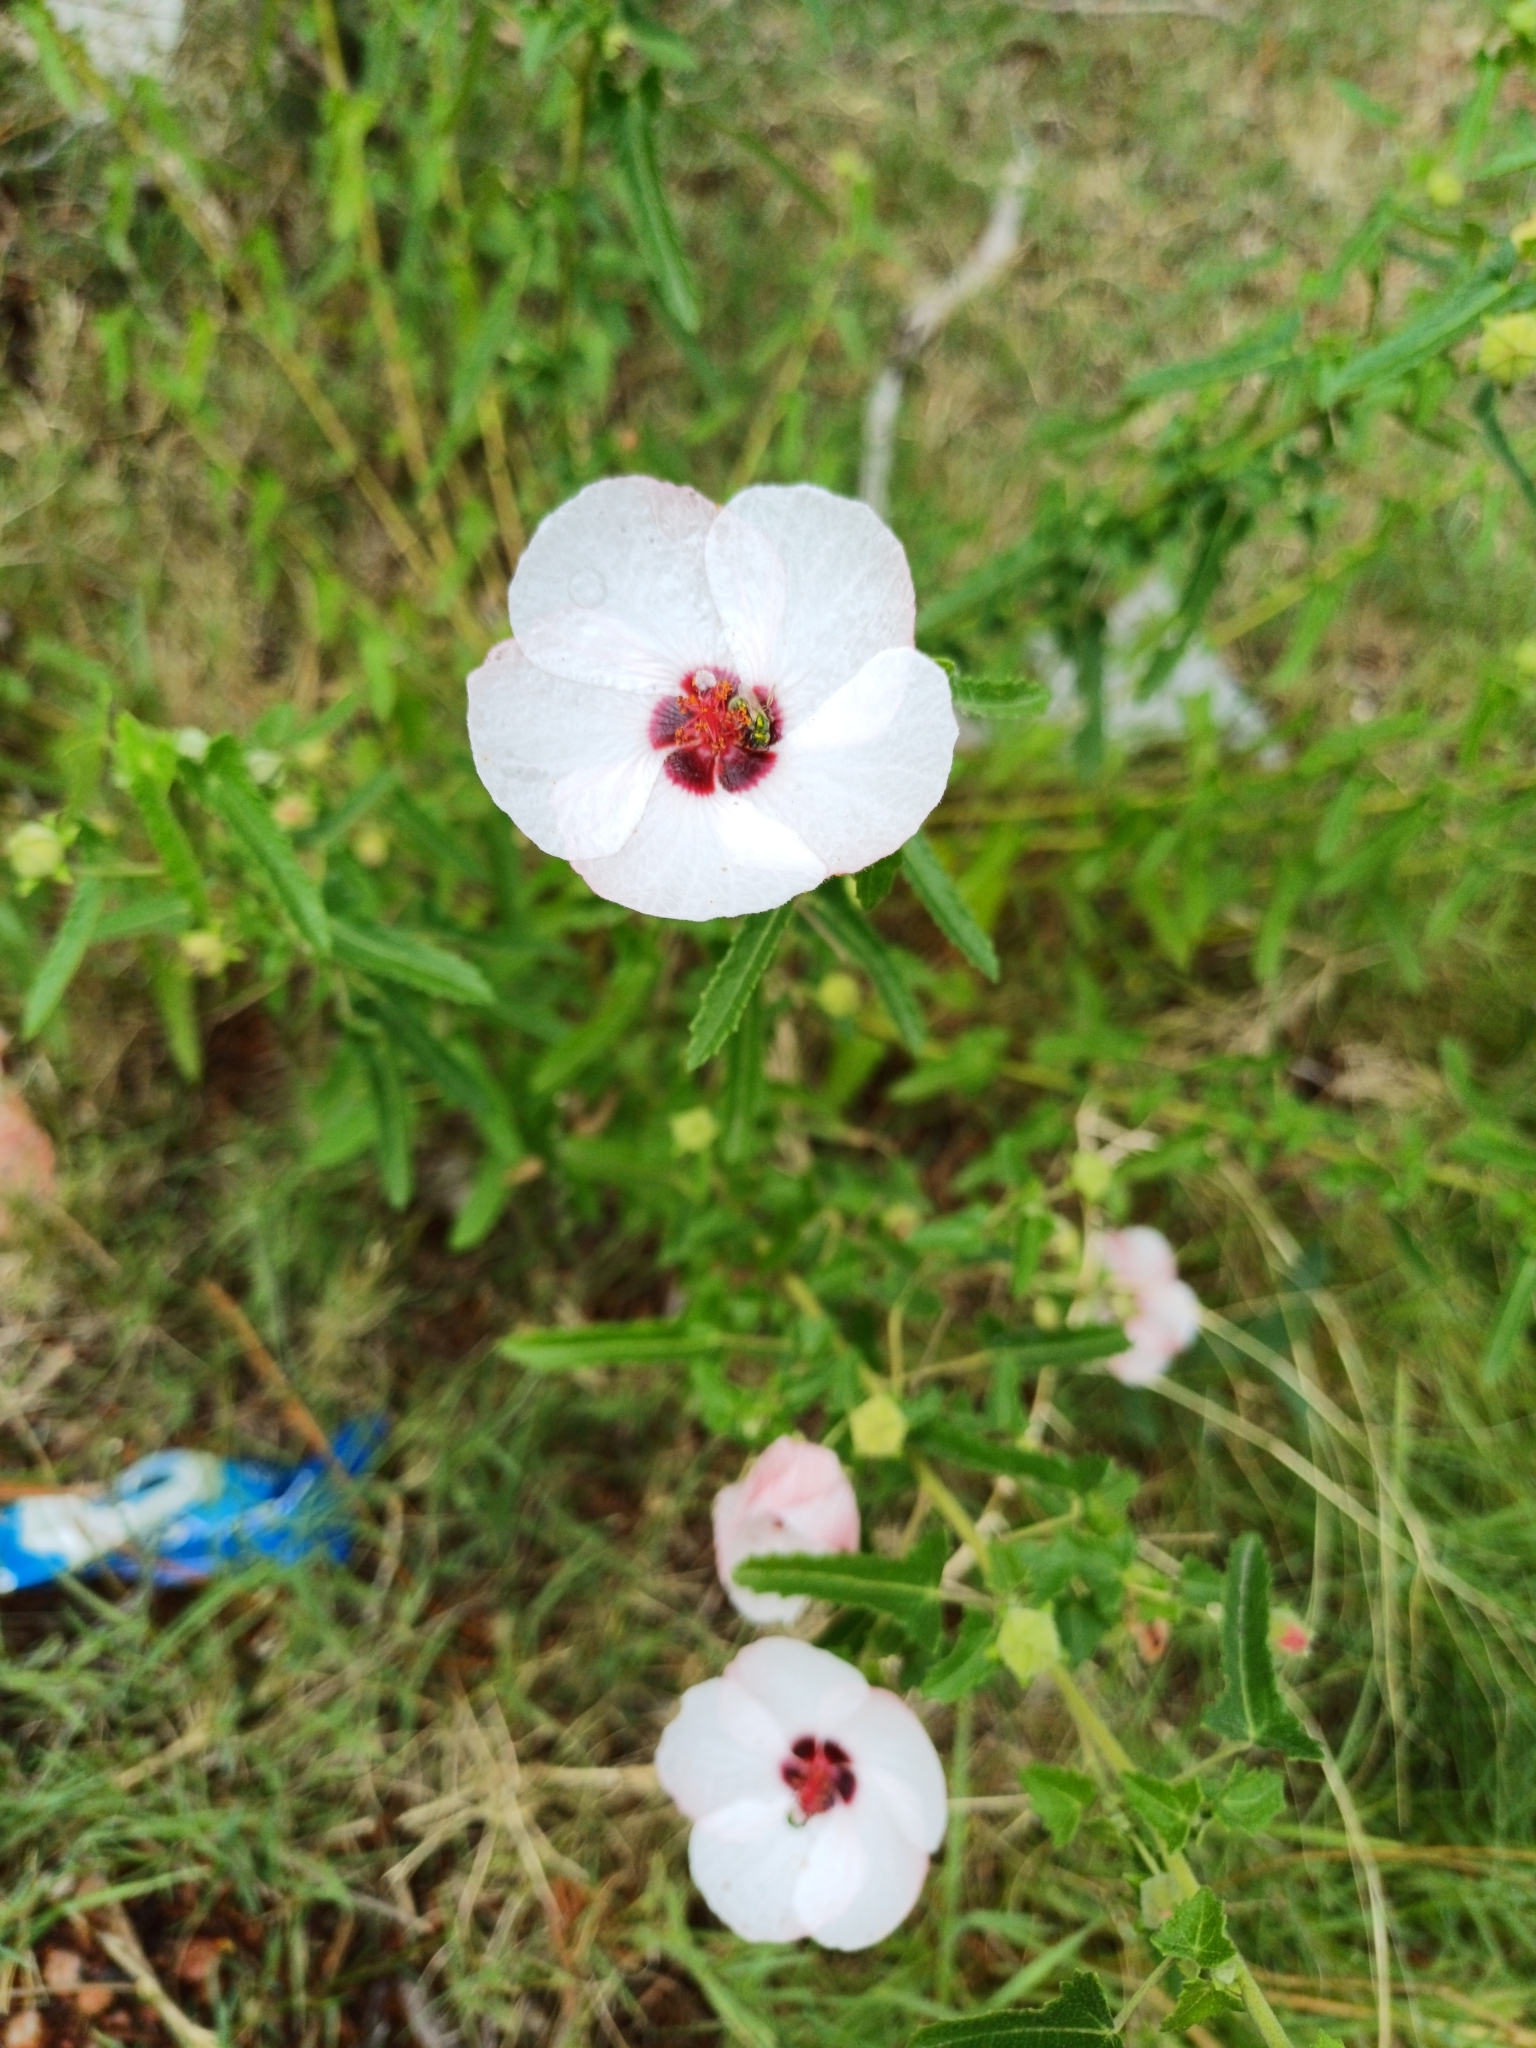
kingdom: Plantae
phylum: Tracheophyta
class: Magnoliopsida
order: Malvales
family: Malvaceae
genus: Pavonia
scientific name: Pavonia hastata
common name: Spearleaf swampmallow
